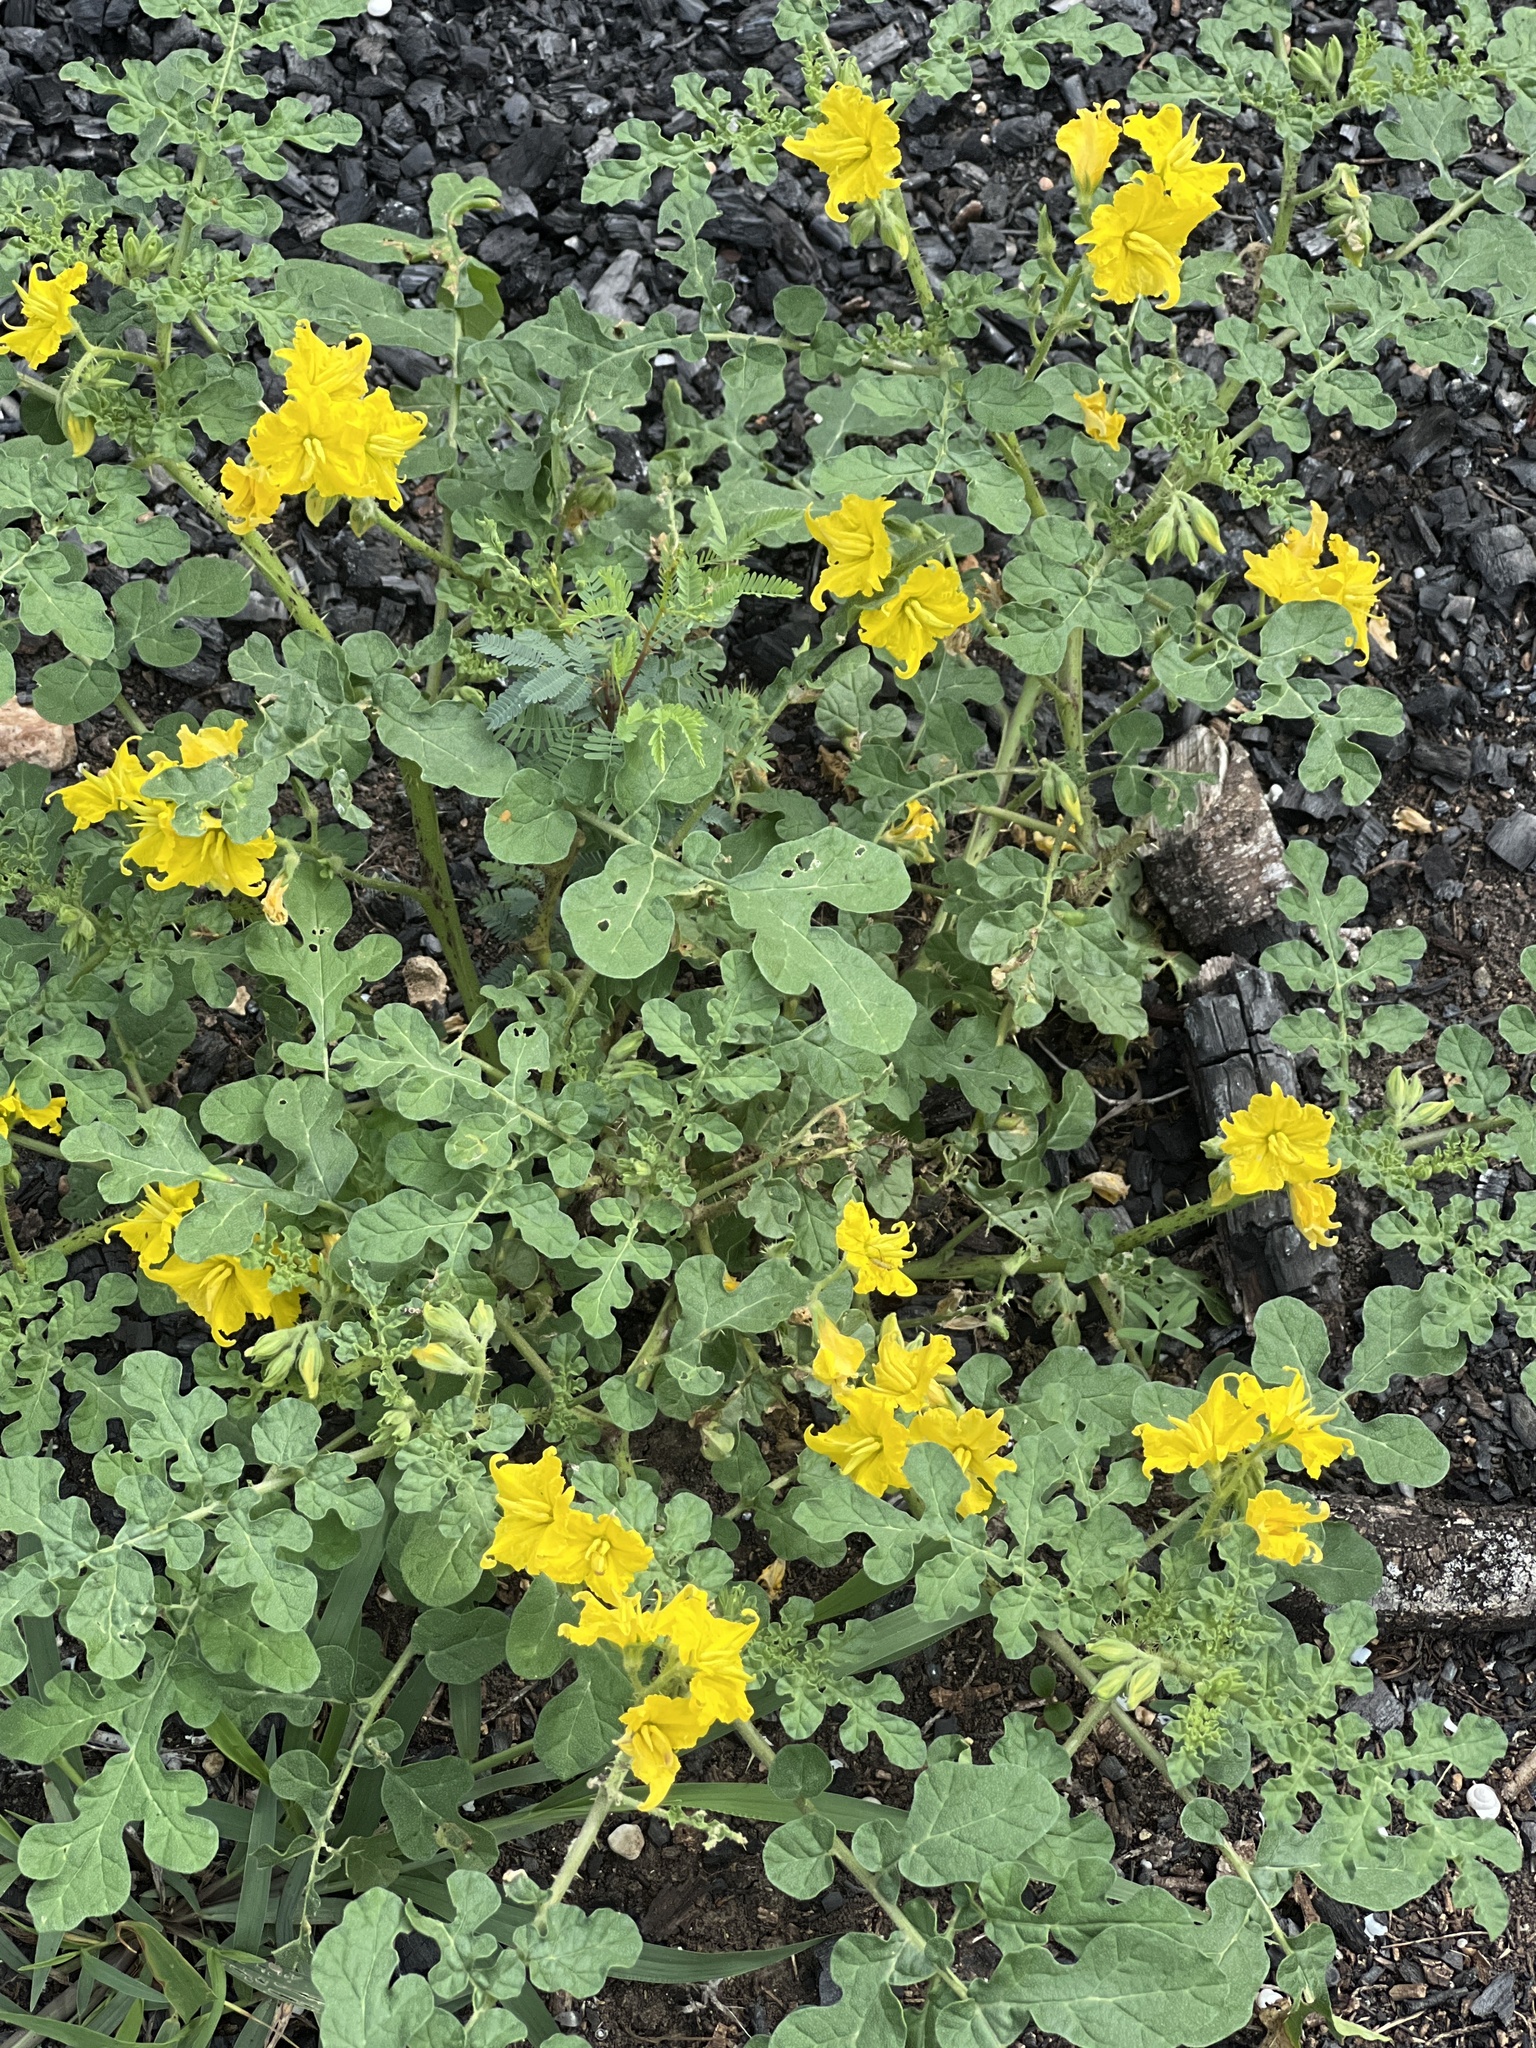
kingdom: Plantae
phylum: Tracheophyta
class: Magnoliopsida
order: Solanales
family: Solanaceae
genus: Solanum
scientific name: Solanum angustifolium
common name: Buffalobur nightshade
